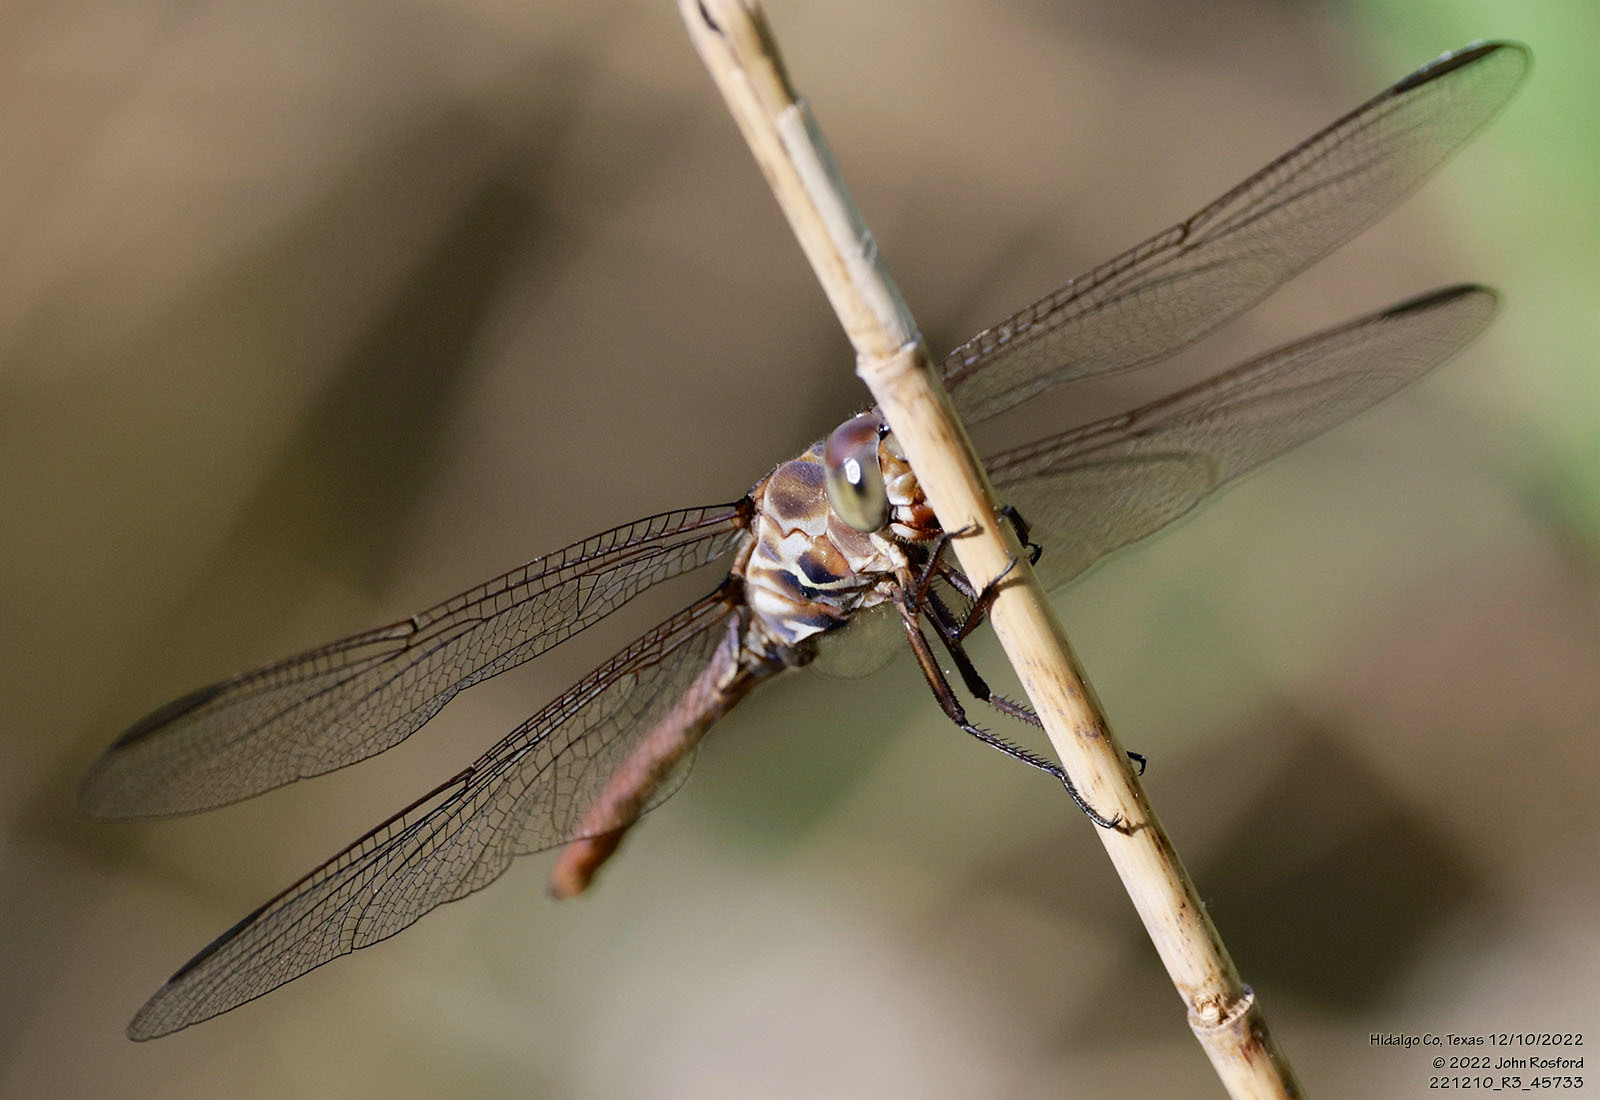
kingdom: Animalia
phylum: Arthropoda
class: Insecta
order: Odonata
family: Libellulidae
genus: Orthemis
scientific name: Orthemis ferruginea
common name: Roseate skimmer
